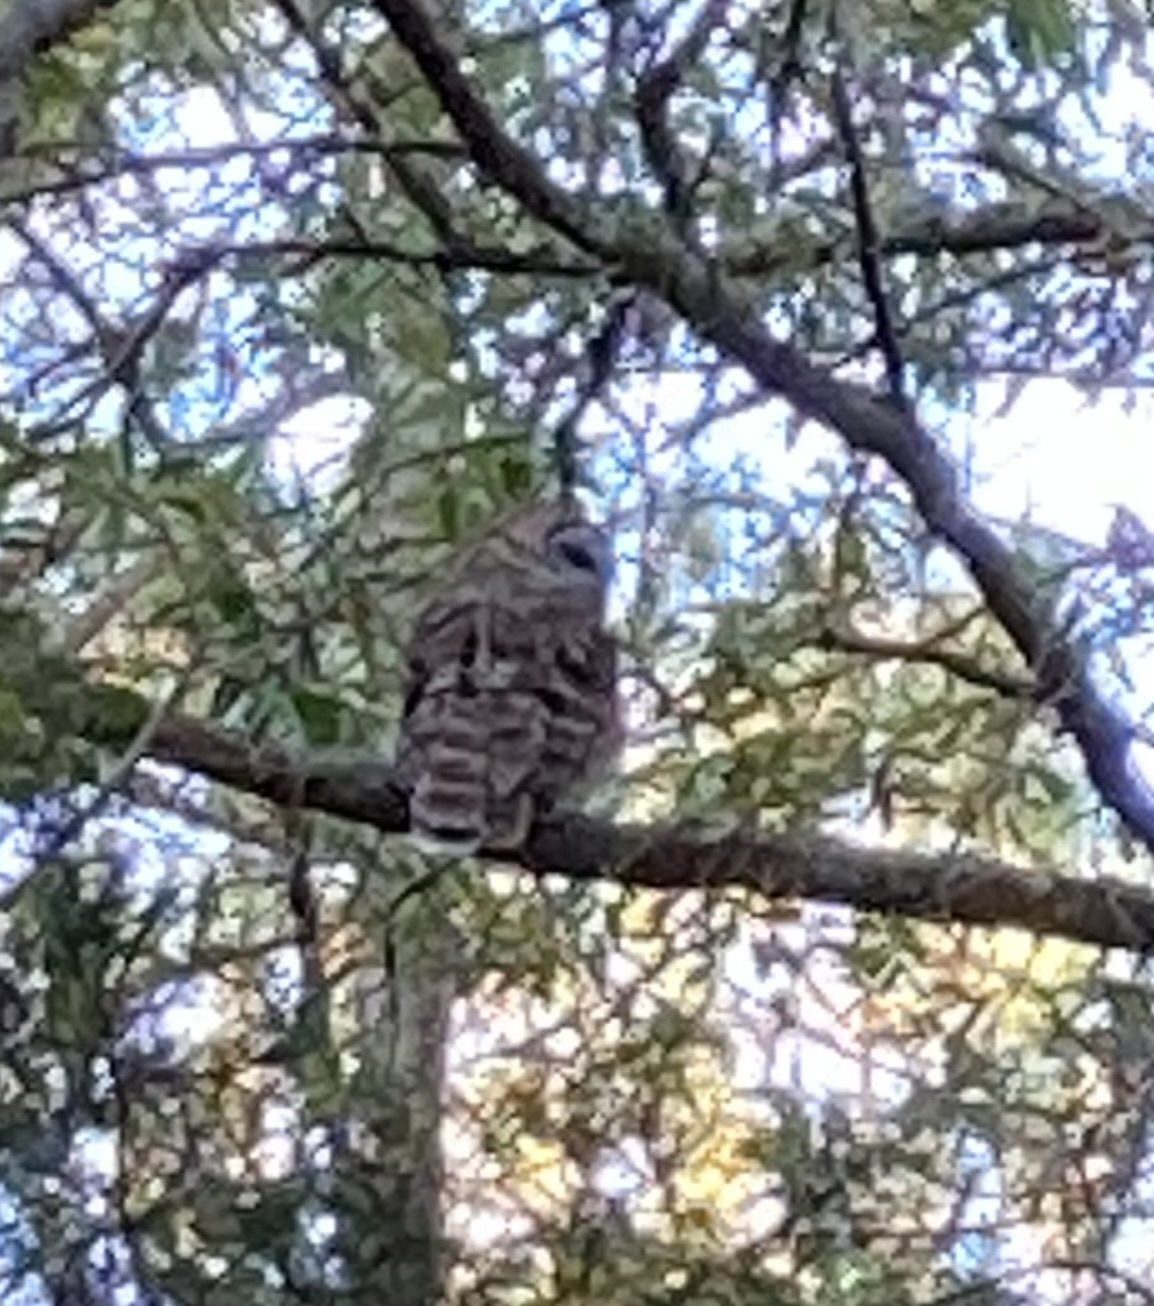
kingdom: Animalia
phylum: Chordata
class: Aves
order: Strigiformes
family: Strigidae
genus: Strix
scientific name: Strix varia
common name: Barred owl
